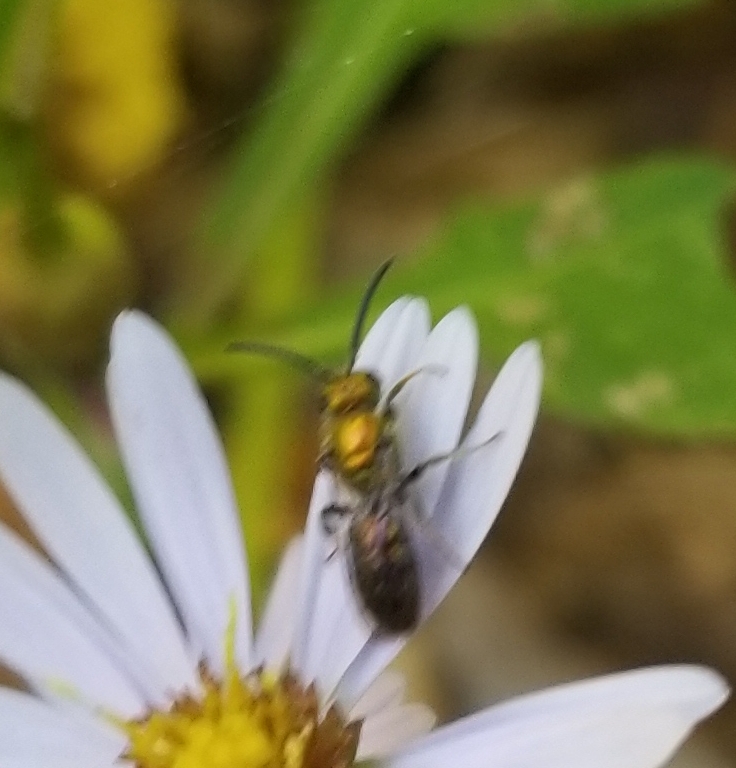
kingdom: Animalia
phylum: Arthropoda
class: Insecta
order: Hymenoptera
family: Halictidae
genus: Augochlora
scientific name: Augochlora pura
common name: Pure green sweat bee
